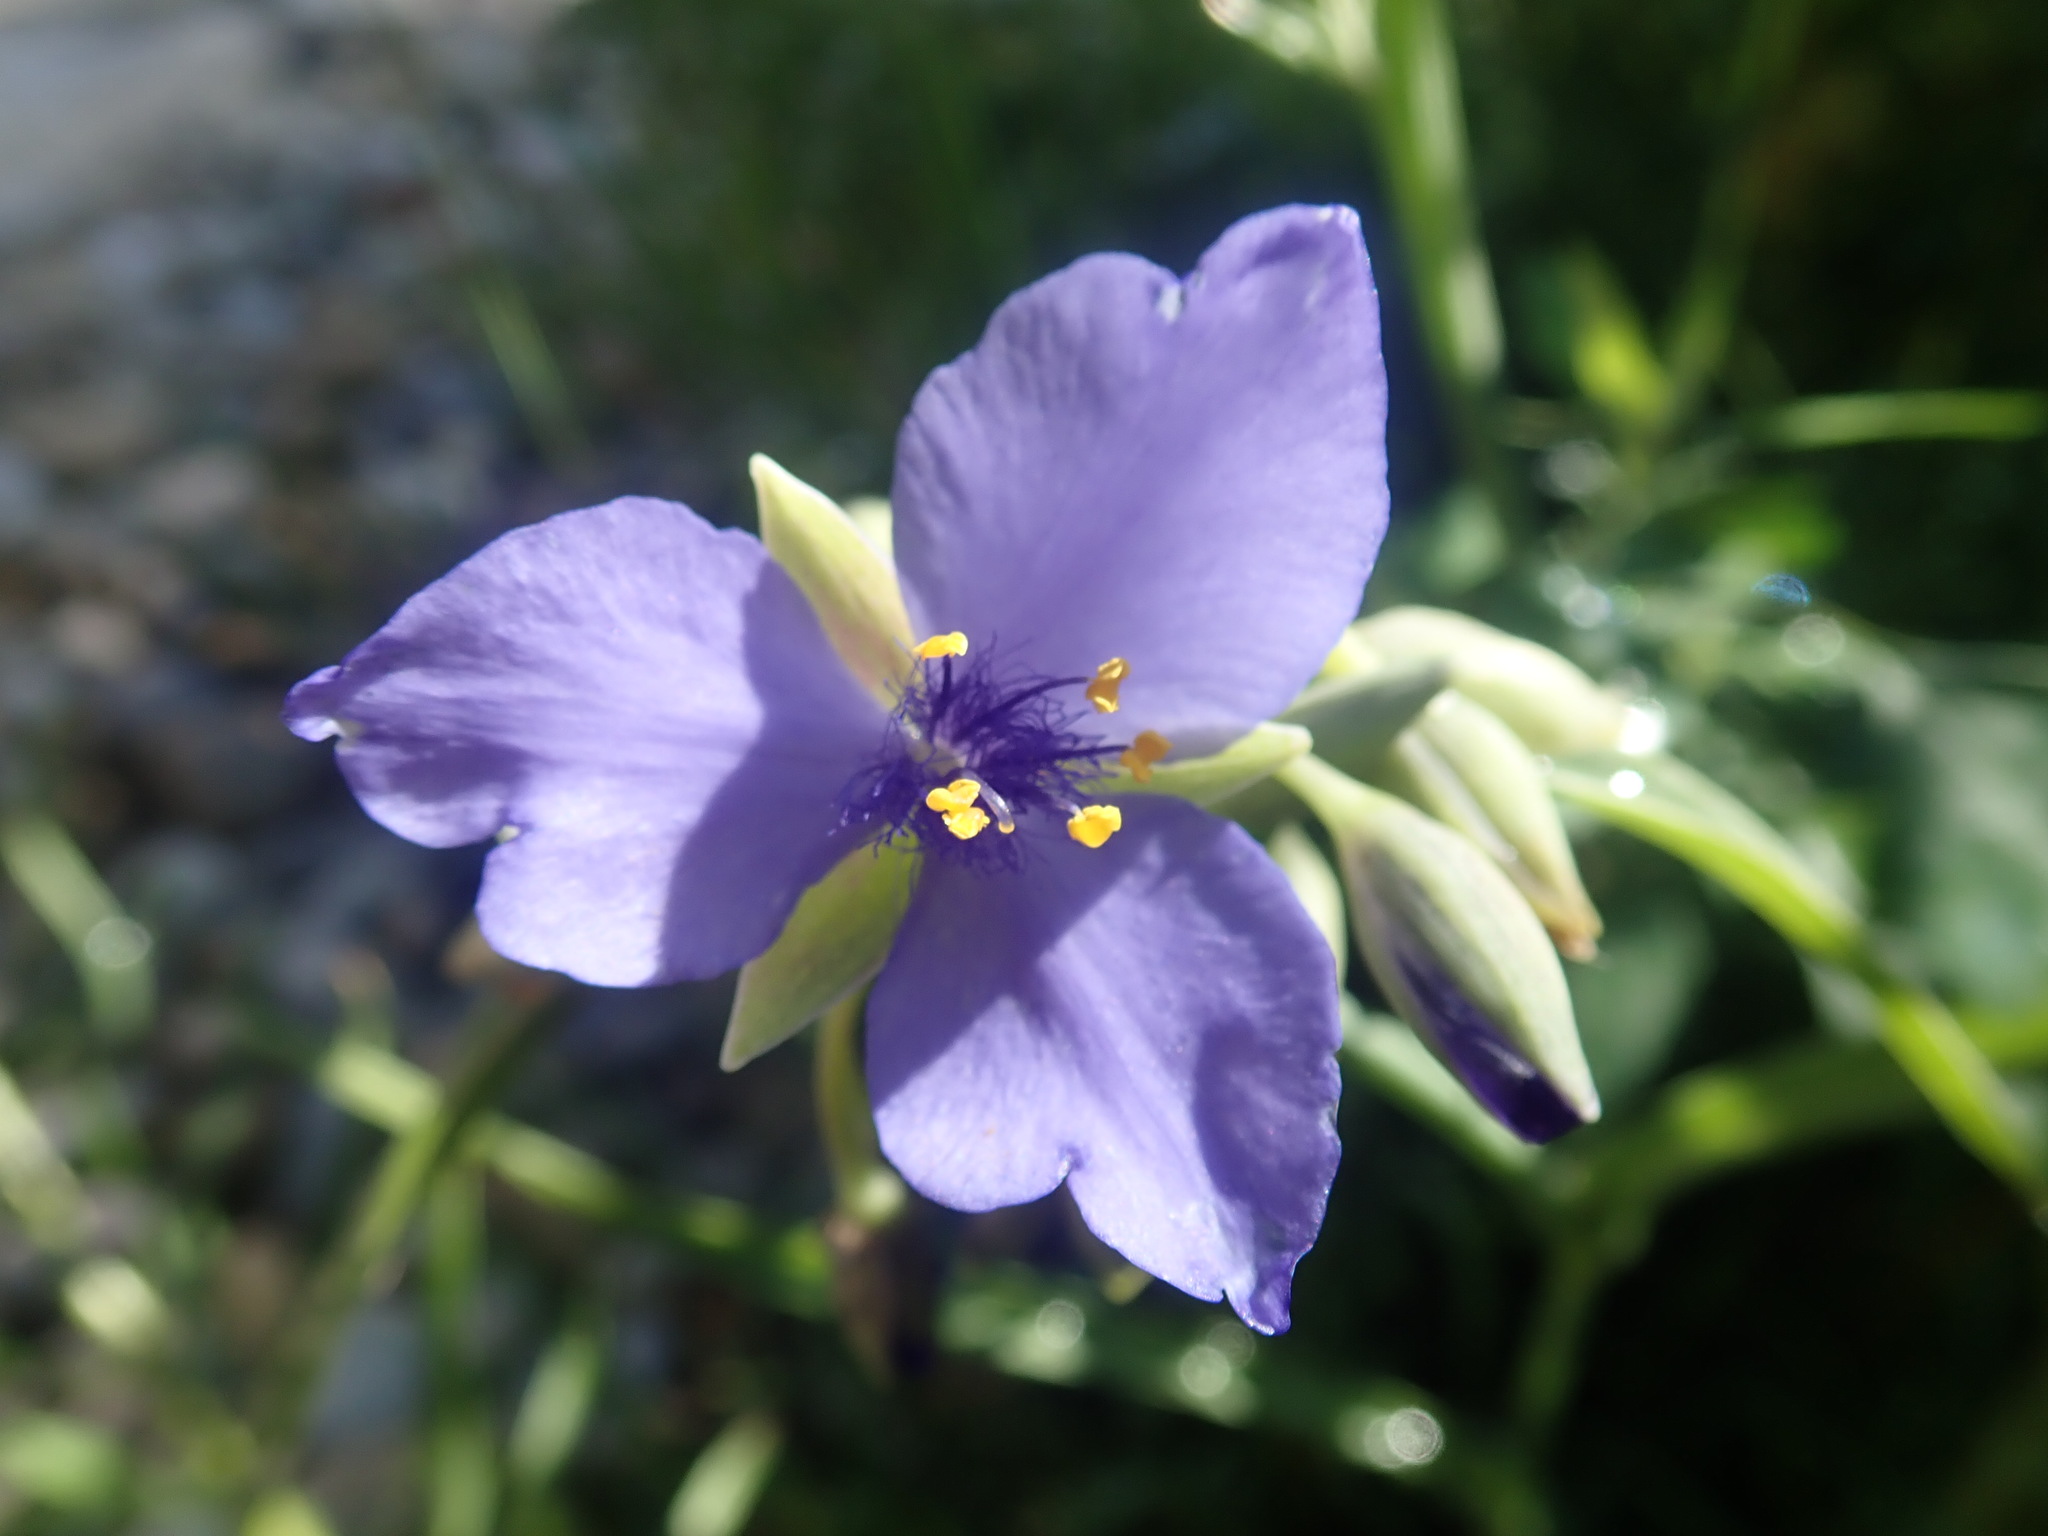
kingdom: Plantae
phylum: Tracheophyta
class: Liliopsida
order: Commelinales
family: Commelinaceae
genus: Tradescantia
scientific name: Tradescantia ohiensis
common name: Ohio spiderwort
